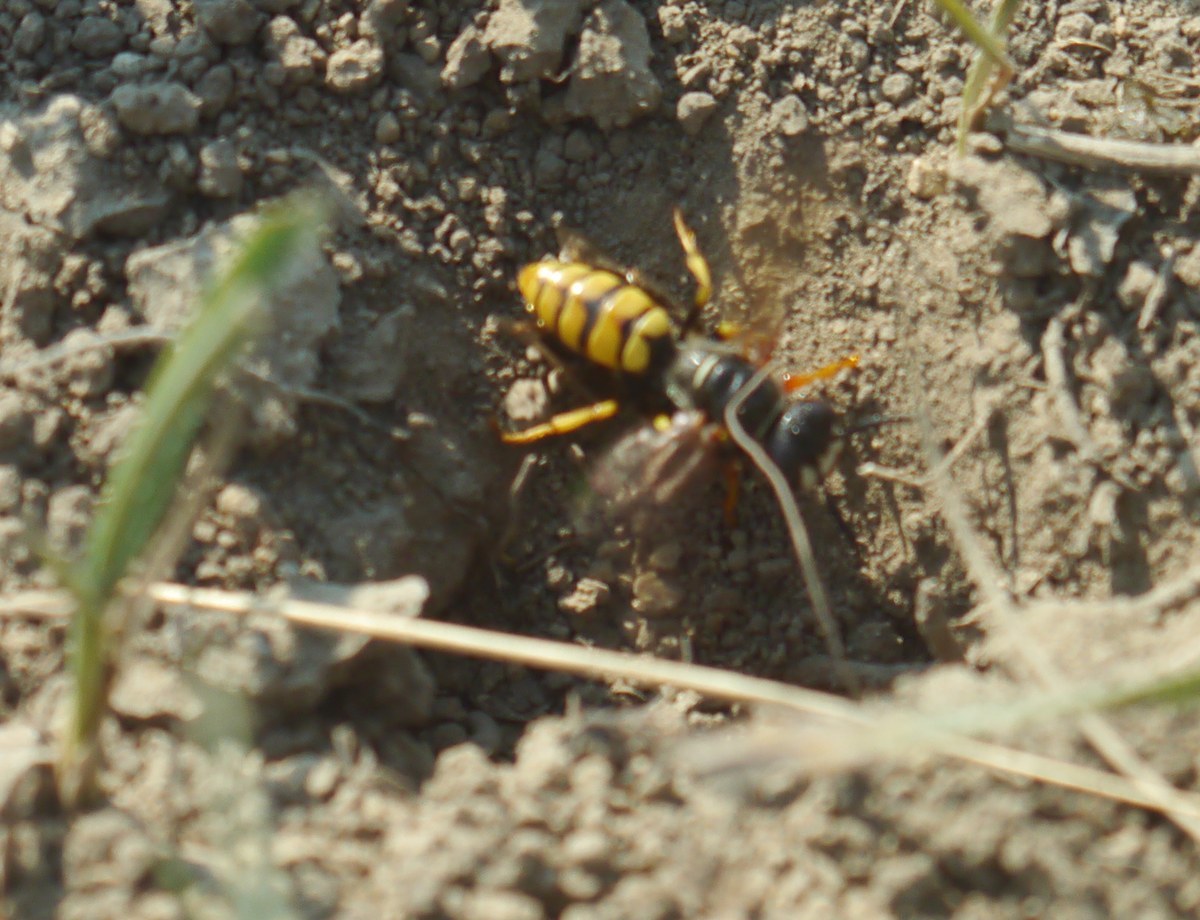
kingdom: Animalia
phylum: Arthropoda
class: Insecta
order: Hymenoptera
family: Crabronidae
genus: Philanthus
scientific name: Philanthus triangulum
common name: Bee wolf
